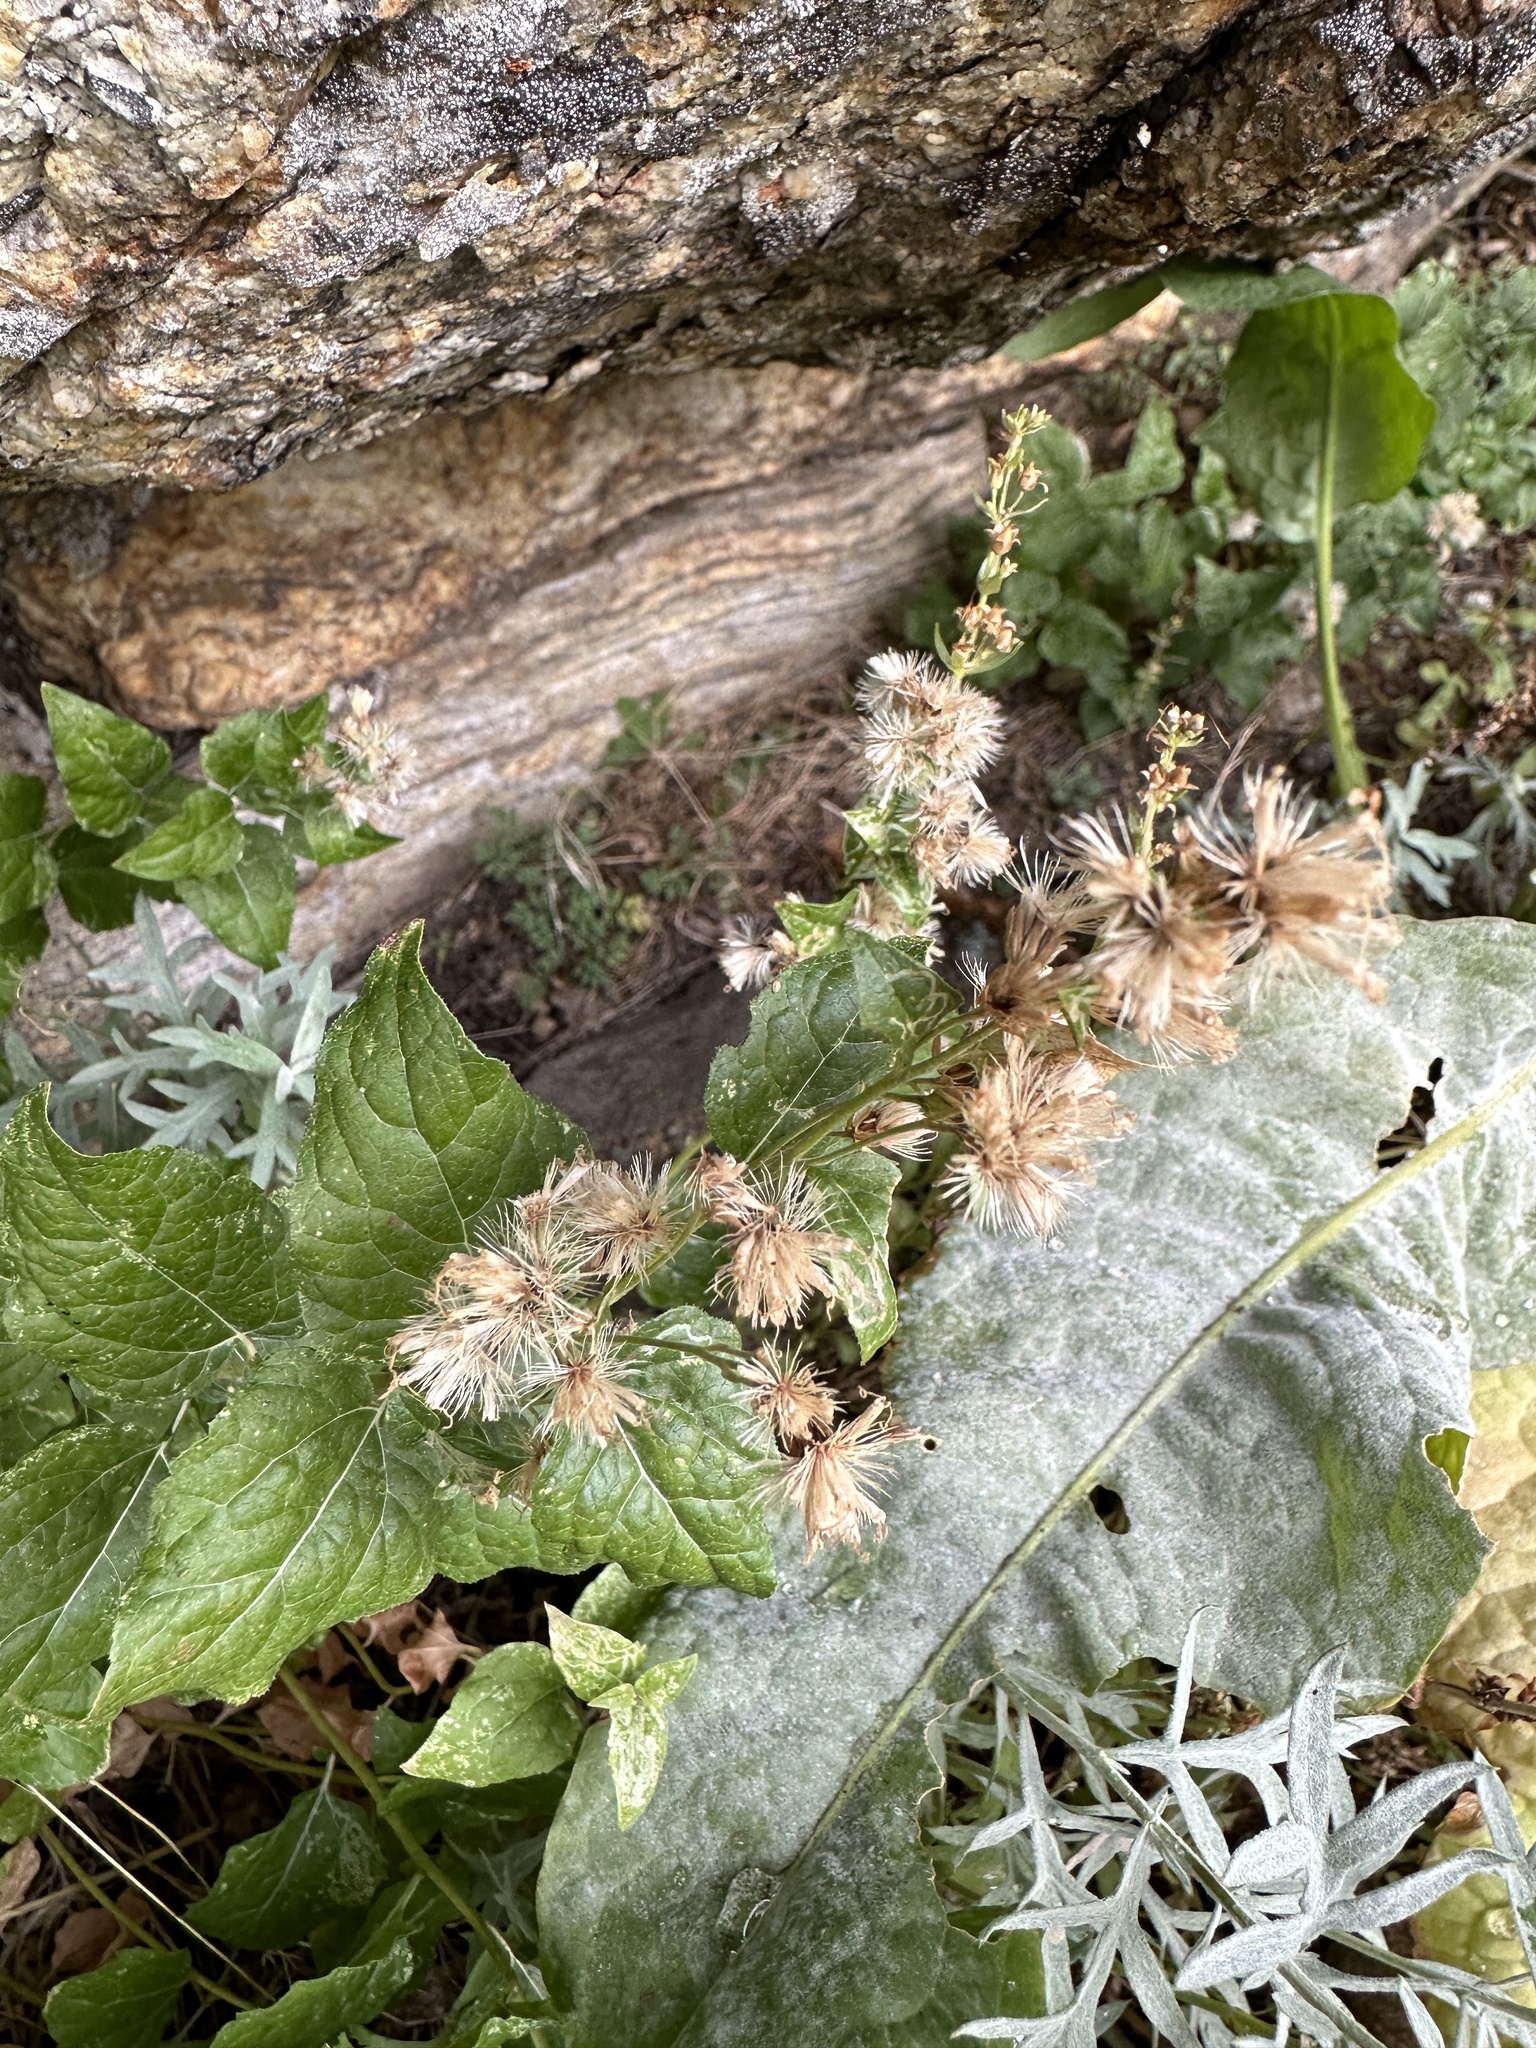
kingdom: Plantae
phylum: Tracheophyta
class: Magnoliopsida
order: Asterales
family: Asteraceae
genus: Ageratina
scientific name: Ageratina occidentalis
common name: Western snakeroot
